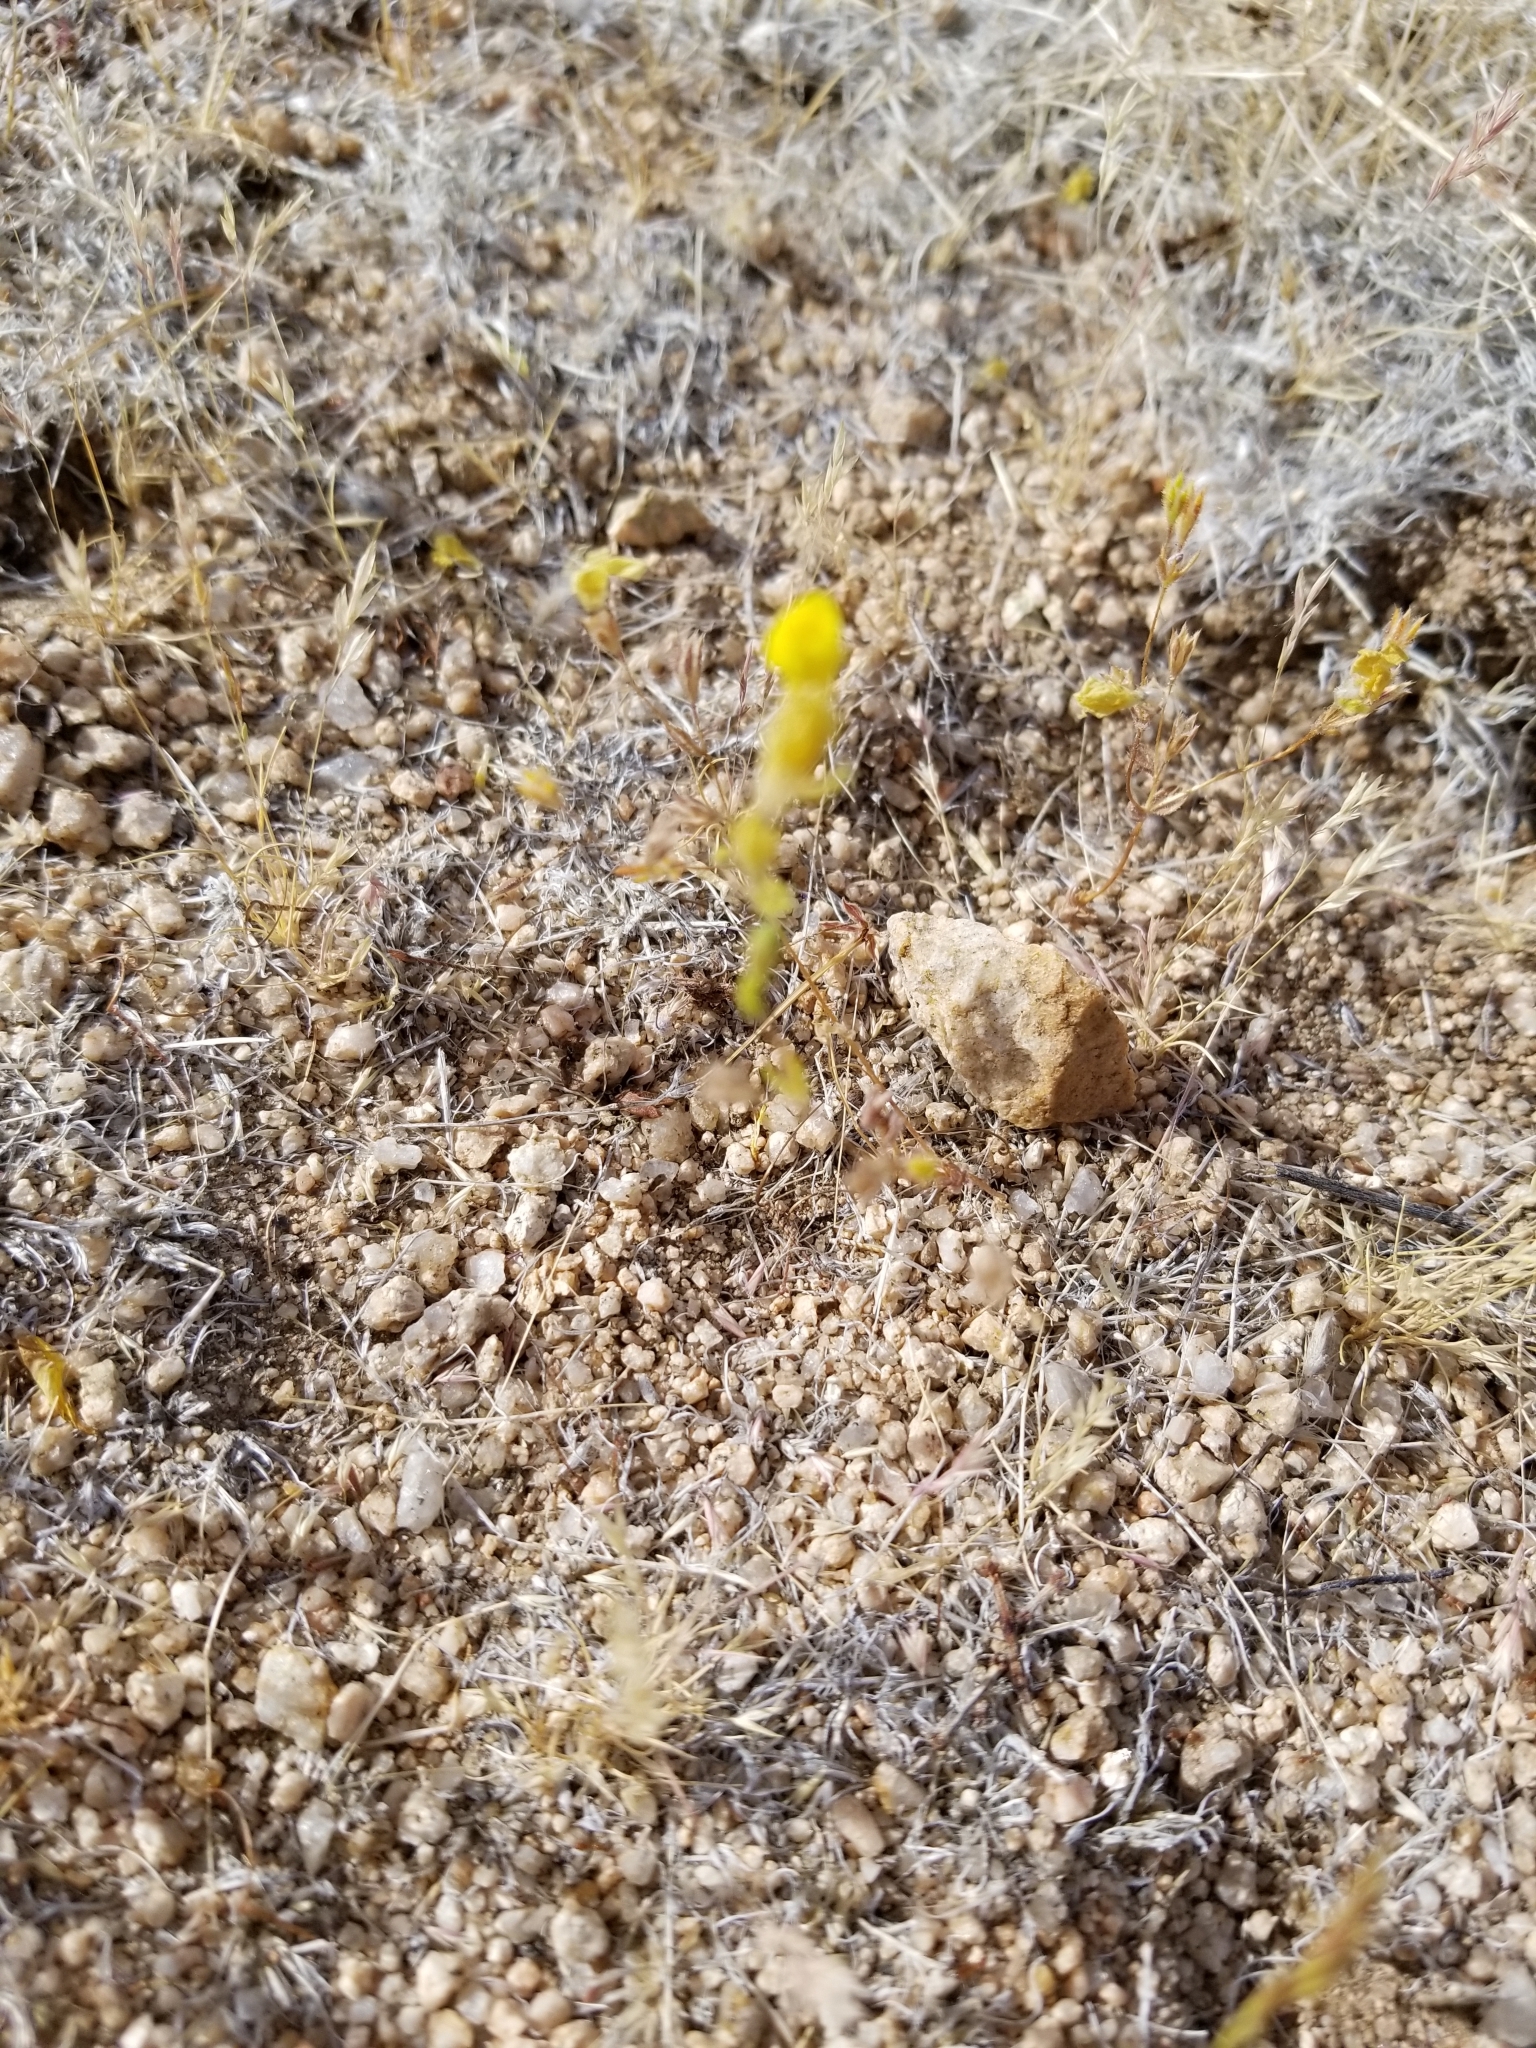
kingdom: Plantae
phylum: Tracheophyta
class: Magnoliopsida
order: Ericales
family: Polemoniaceae
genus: Leptosiphon
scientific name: Leptosiphon chrysanthus
